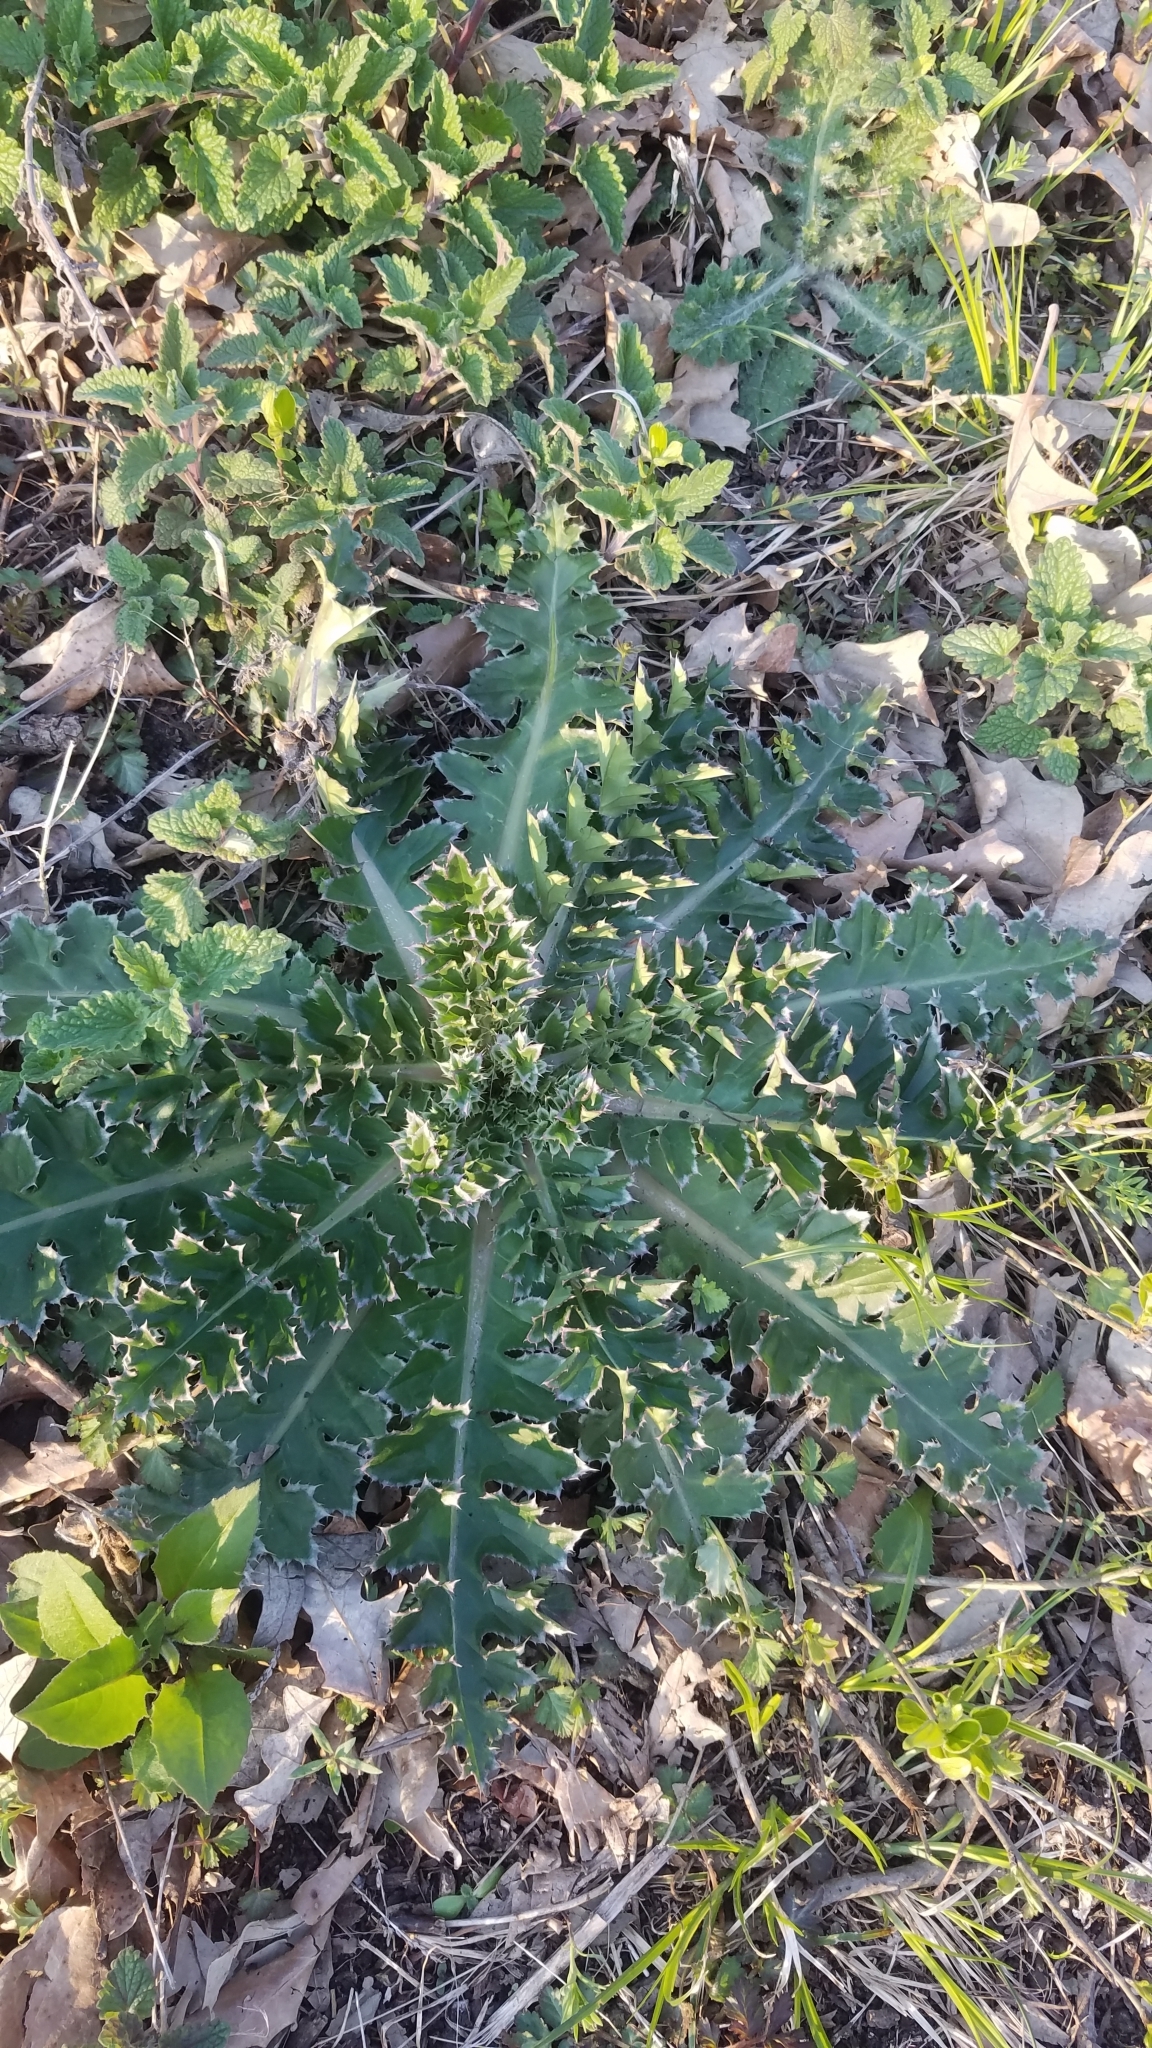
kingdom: Plantae
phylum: Tracheophyta
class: Magnoliopsida
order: Asterales
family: Asteraceae
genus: Carduus
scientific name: Carduus nutans
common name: Musk thistle
